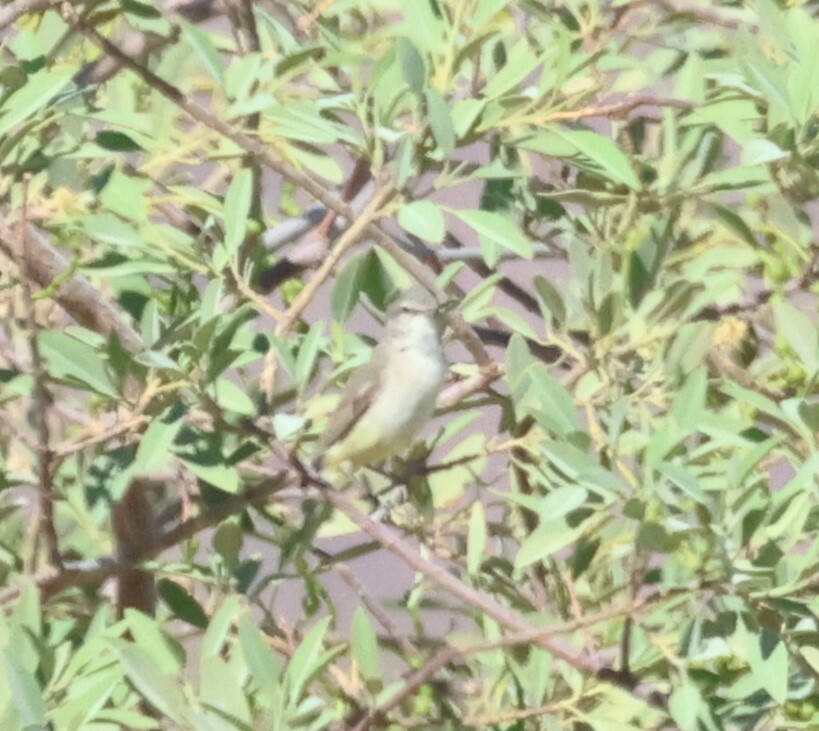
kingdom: Animalia
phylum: Chordata
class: Aves
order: Passeriformes
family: Cisticolidae
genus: Eremomela
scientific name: Eremomela icteropygialis
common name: Yellow-bellied eremomela
